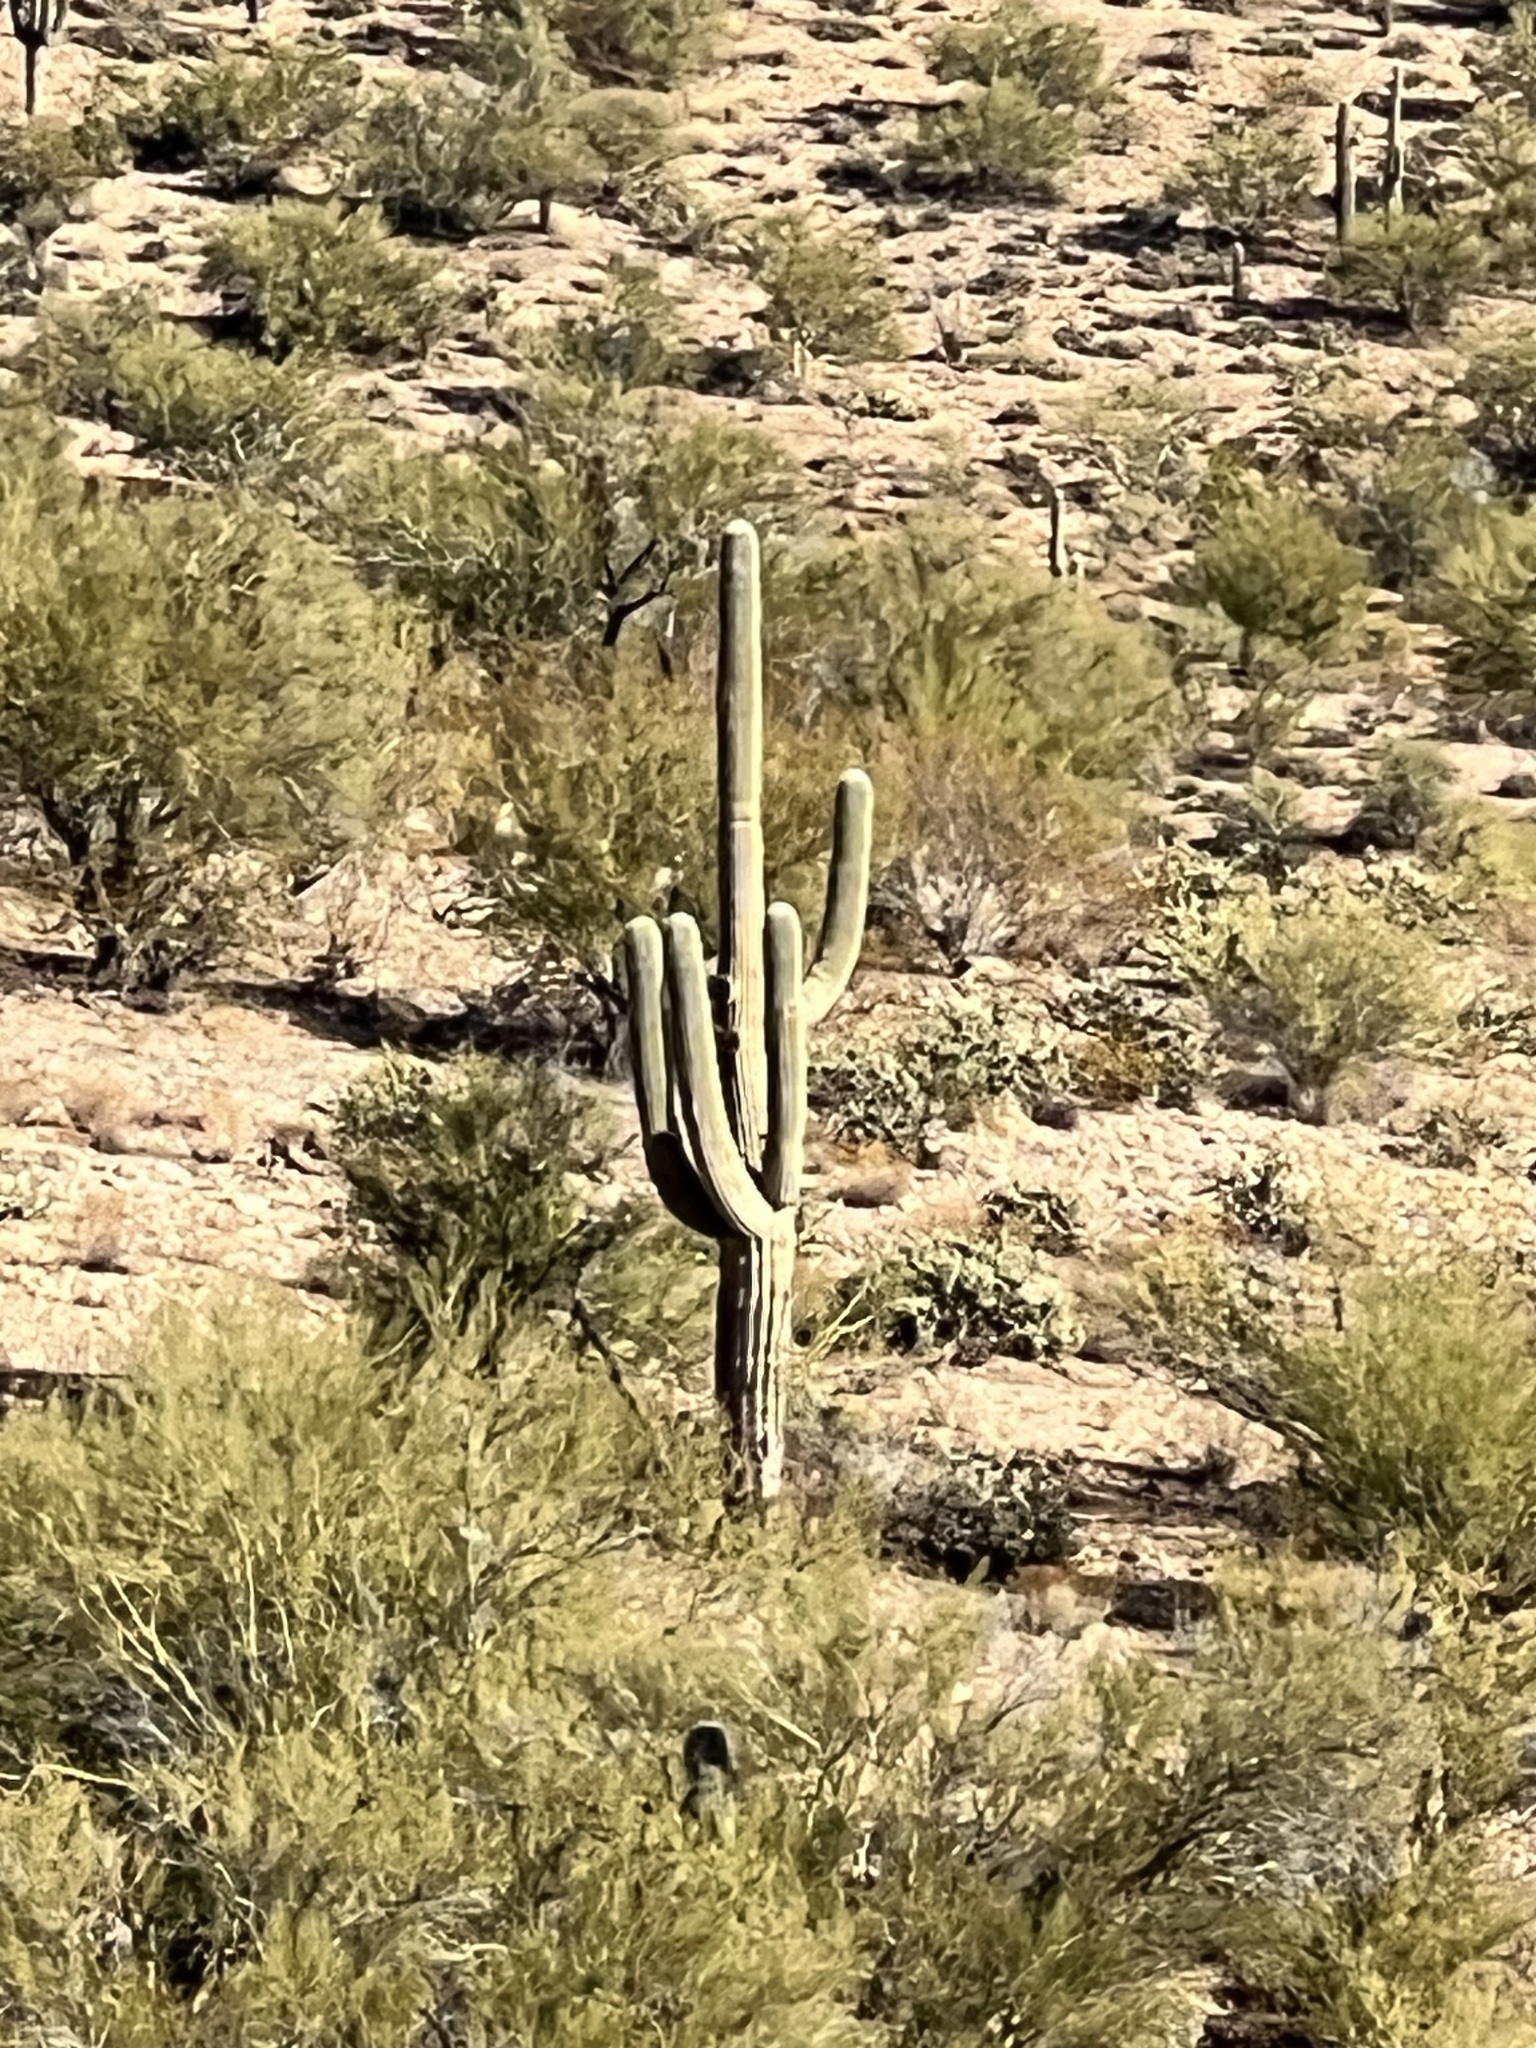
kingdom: Plantae
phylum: Tracheophyta
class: Magnoliopsida
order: Caryophyllales
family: Cactaceae
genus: Carnegiea
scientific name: Carnegiea gigantea
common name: Saguaro
